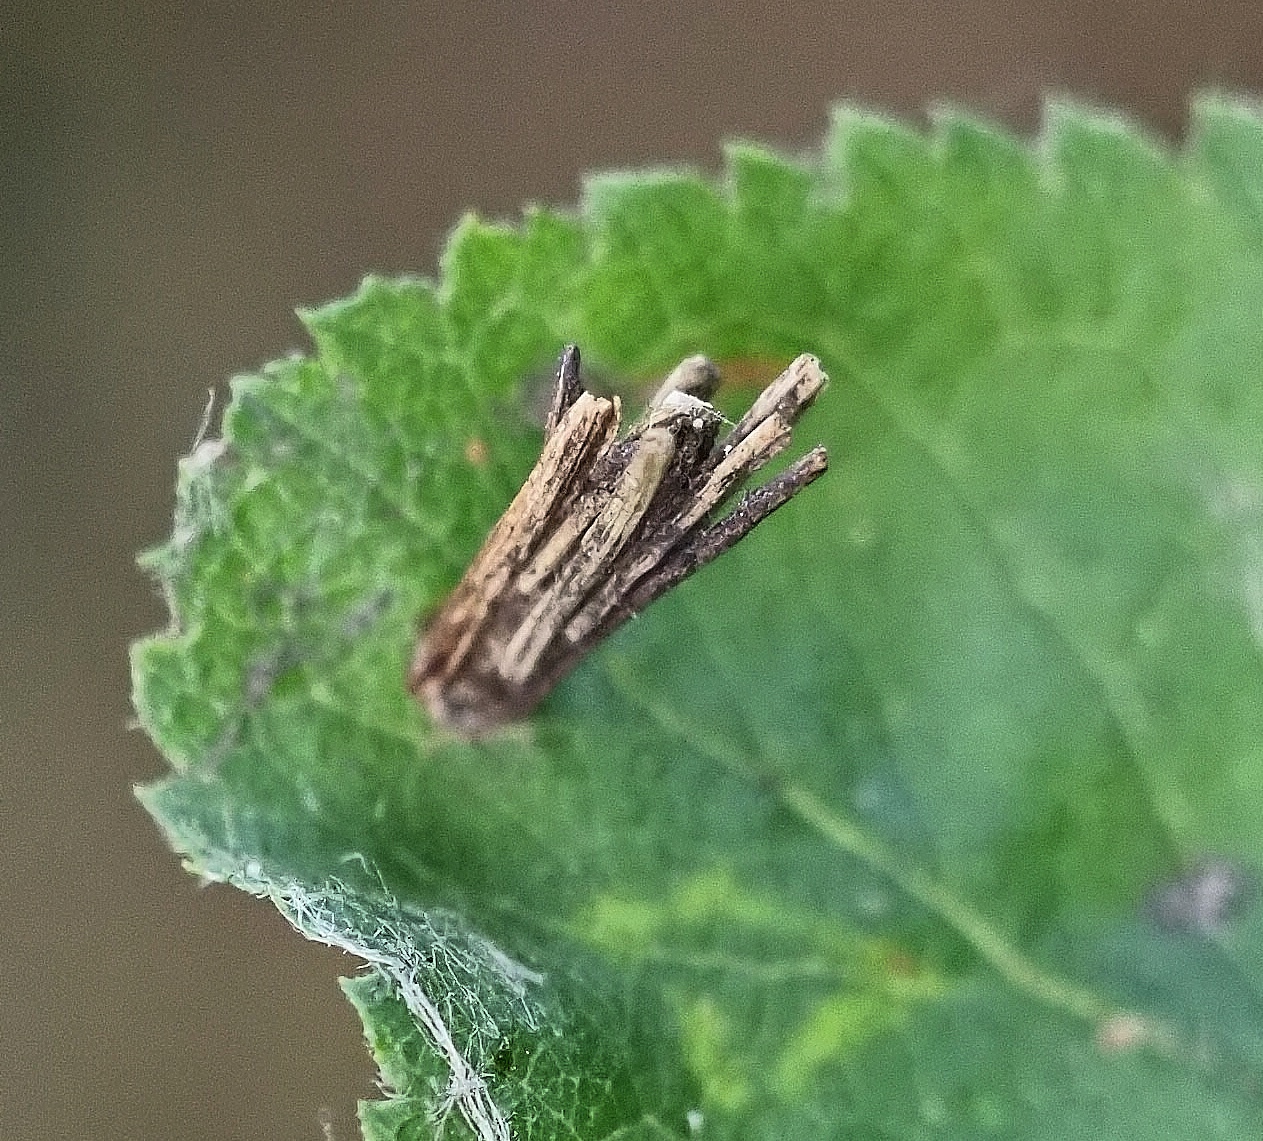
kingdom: Animalia
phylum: Arthropoda
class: Insecta
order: Lepidoptera
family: Psychidae
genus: Psyche
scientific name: Psyche casta
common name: Common sweep
